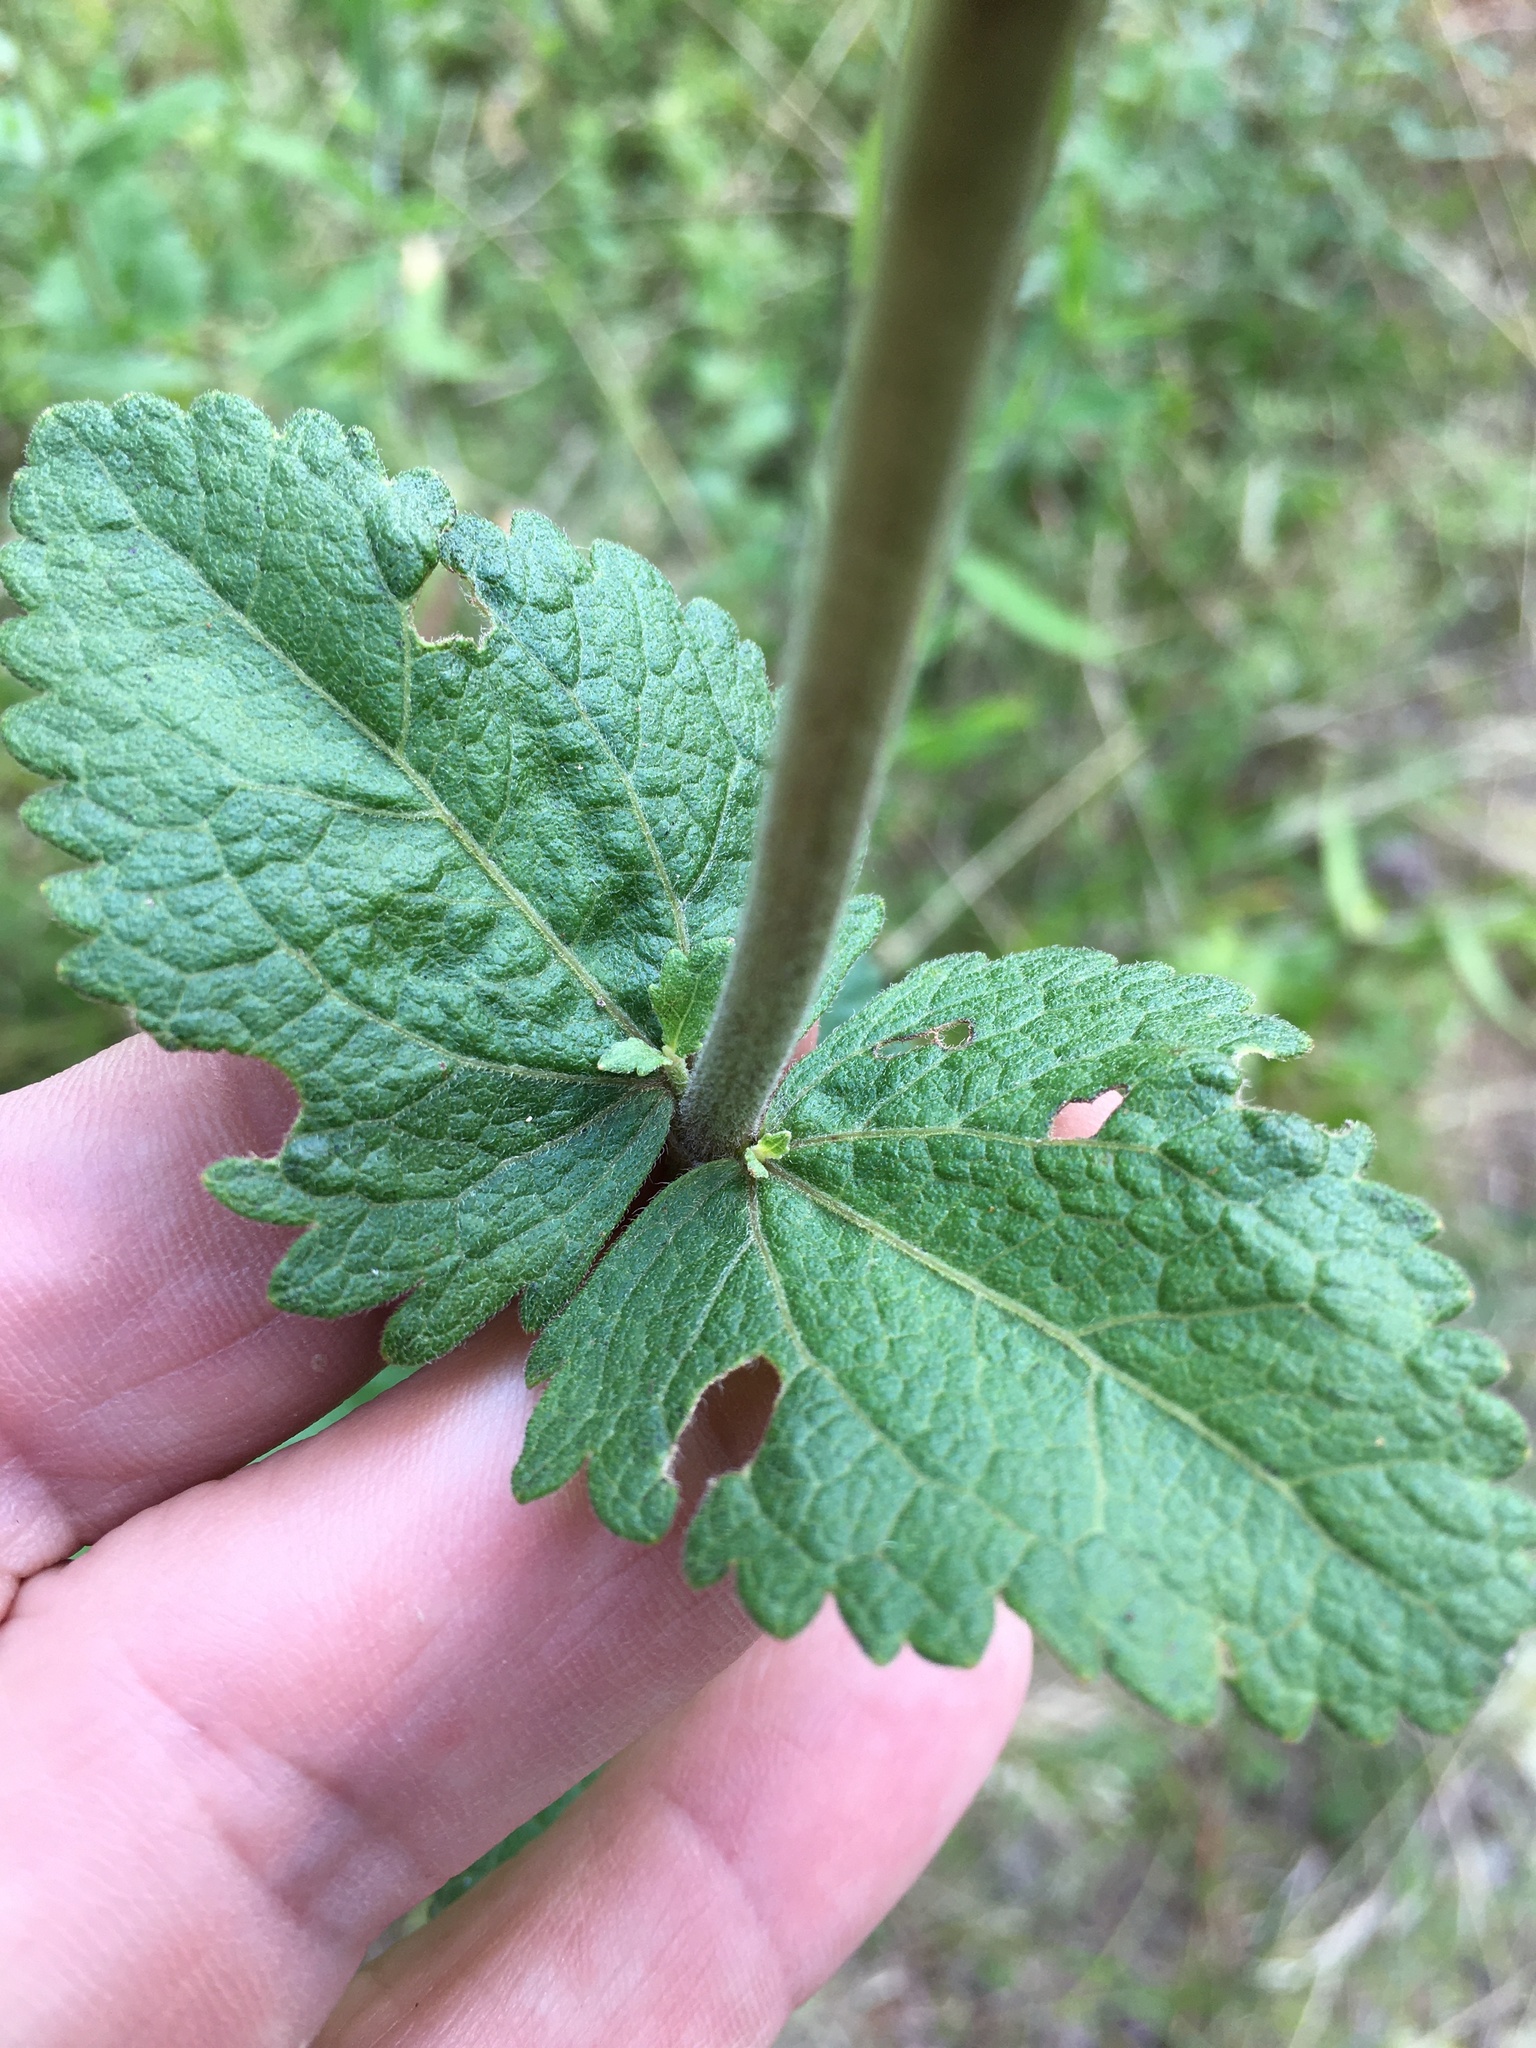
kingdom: Plantae
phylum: Tracheophyta
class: Magnoliopsida
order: Asterales
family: Asteraceae
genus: Eupatorium
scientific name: Eupatorium rotundifolium
